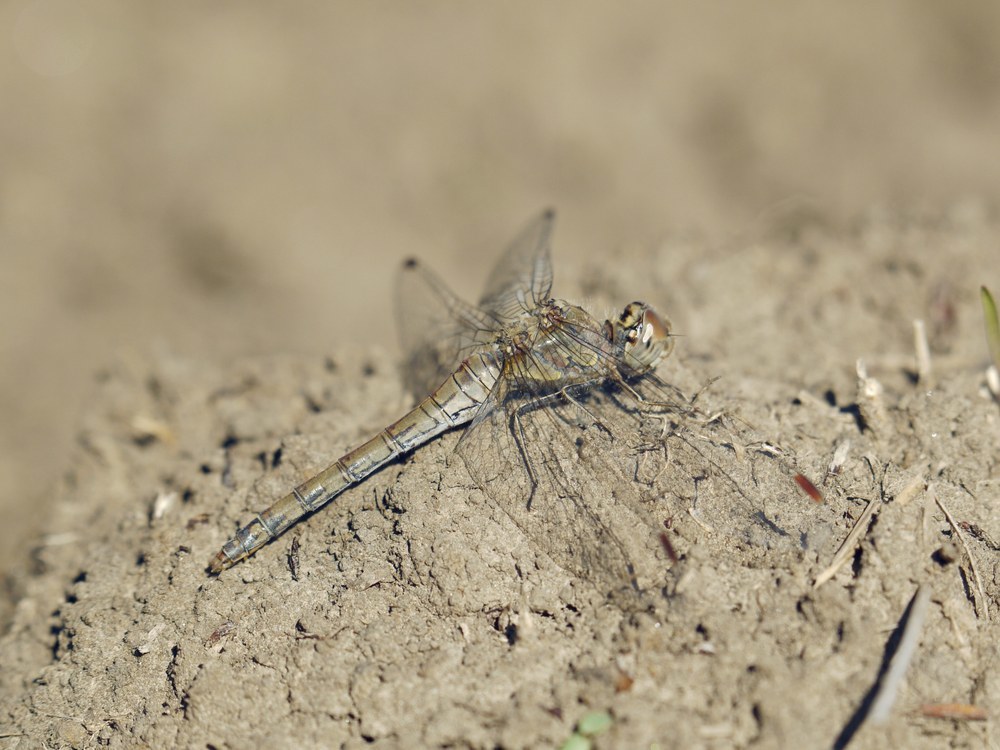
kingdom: Animalia
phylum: Arthropoda
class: Insecta
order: Odonata
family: Libellulidae
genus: Sympetrum
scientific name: Sympetrum striolatum
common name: Common darter
